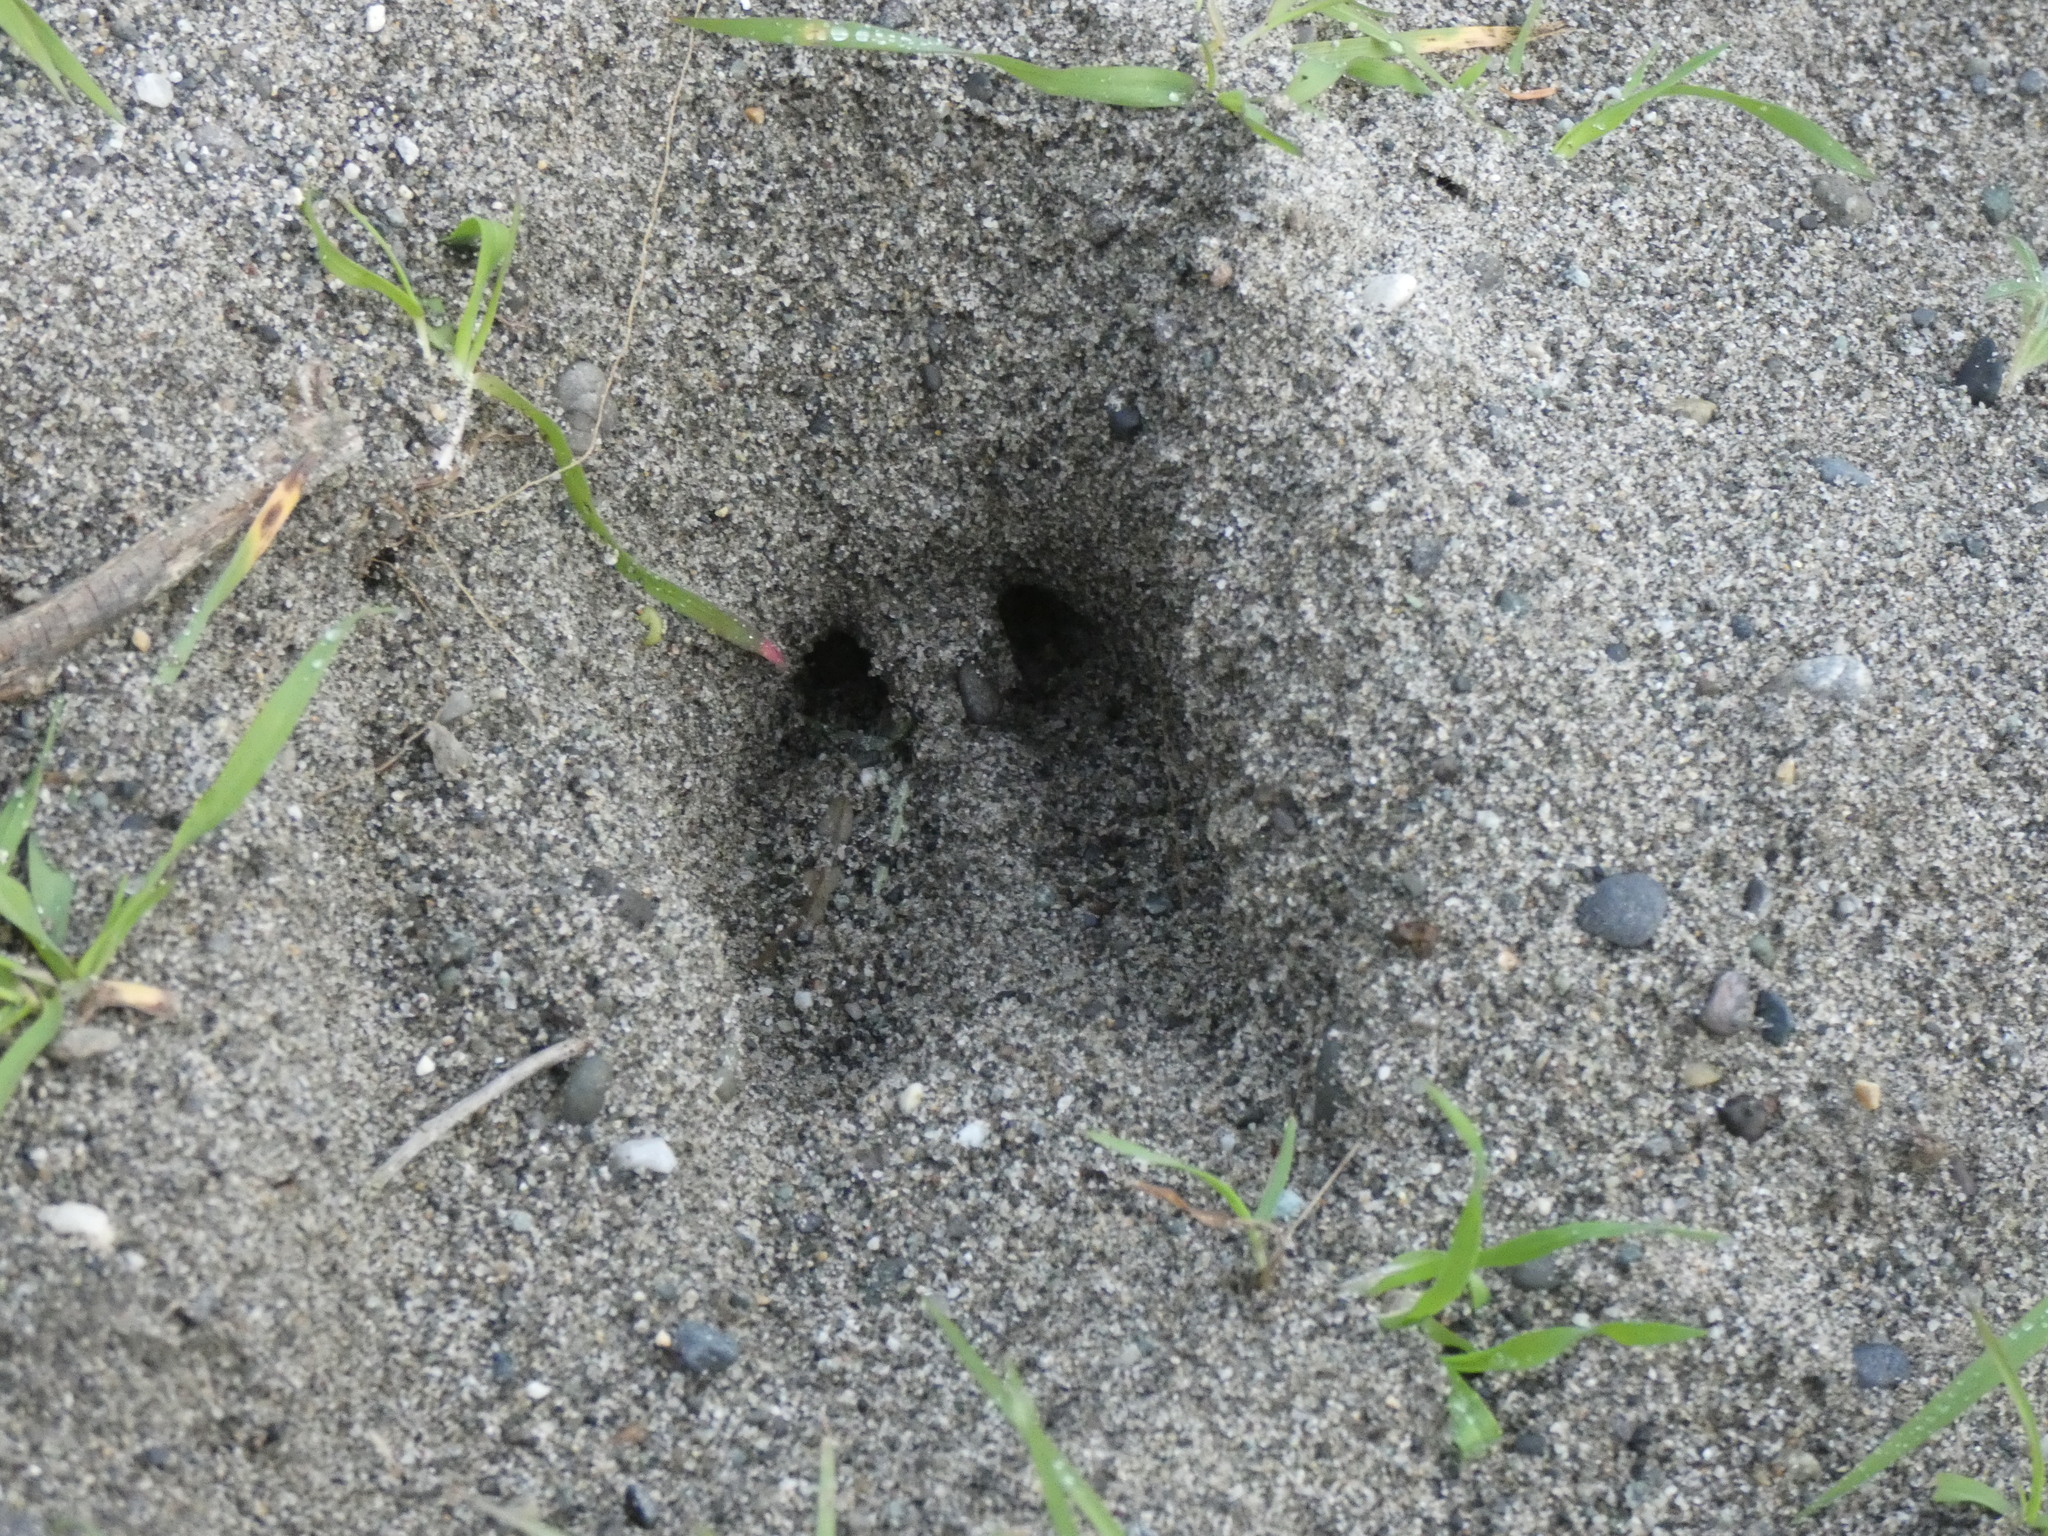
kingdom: Animalia
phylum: Chordata
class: Mammalia
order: Artiodactyla
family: Cervidae
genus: Odocoileus
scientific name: Odocoileus hemionus
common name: Mule deer
